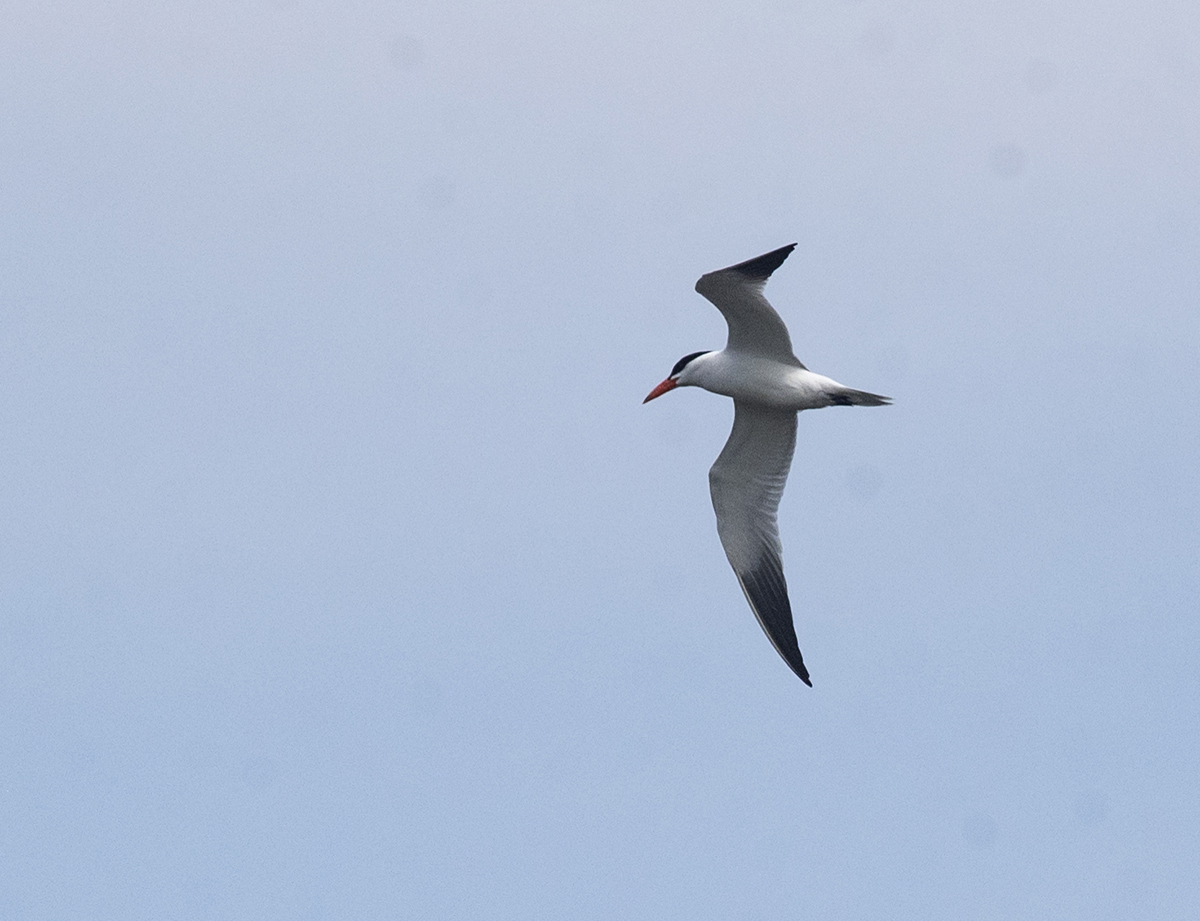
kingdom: Animalia
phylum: Chordata
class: Aves
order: Charadriiformes
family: Laridae
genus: Hydroprogne
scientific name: Hydroprogne caspia
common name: Caspian tern
